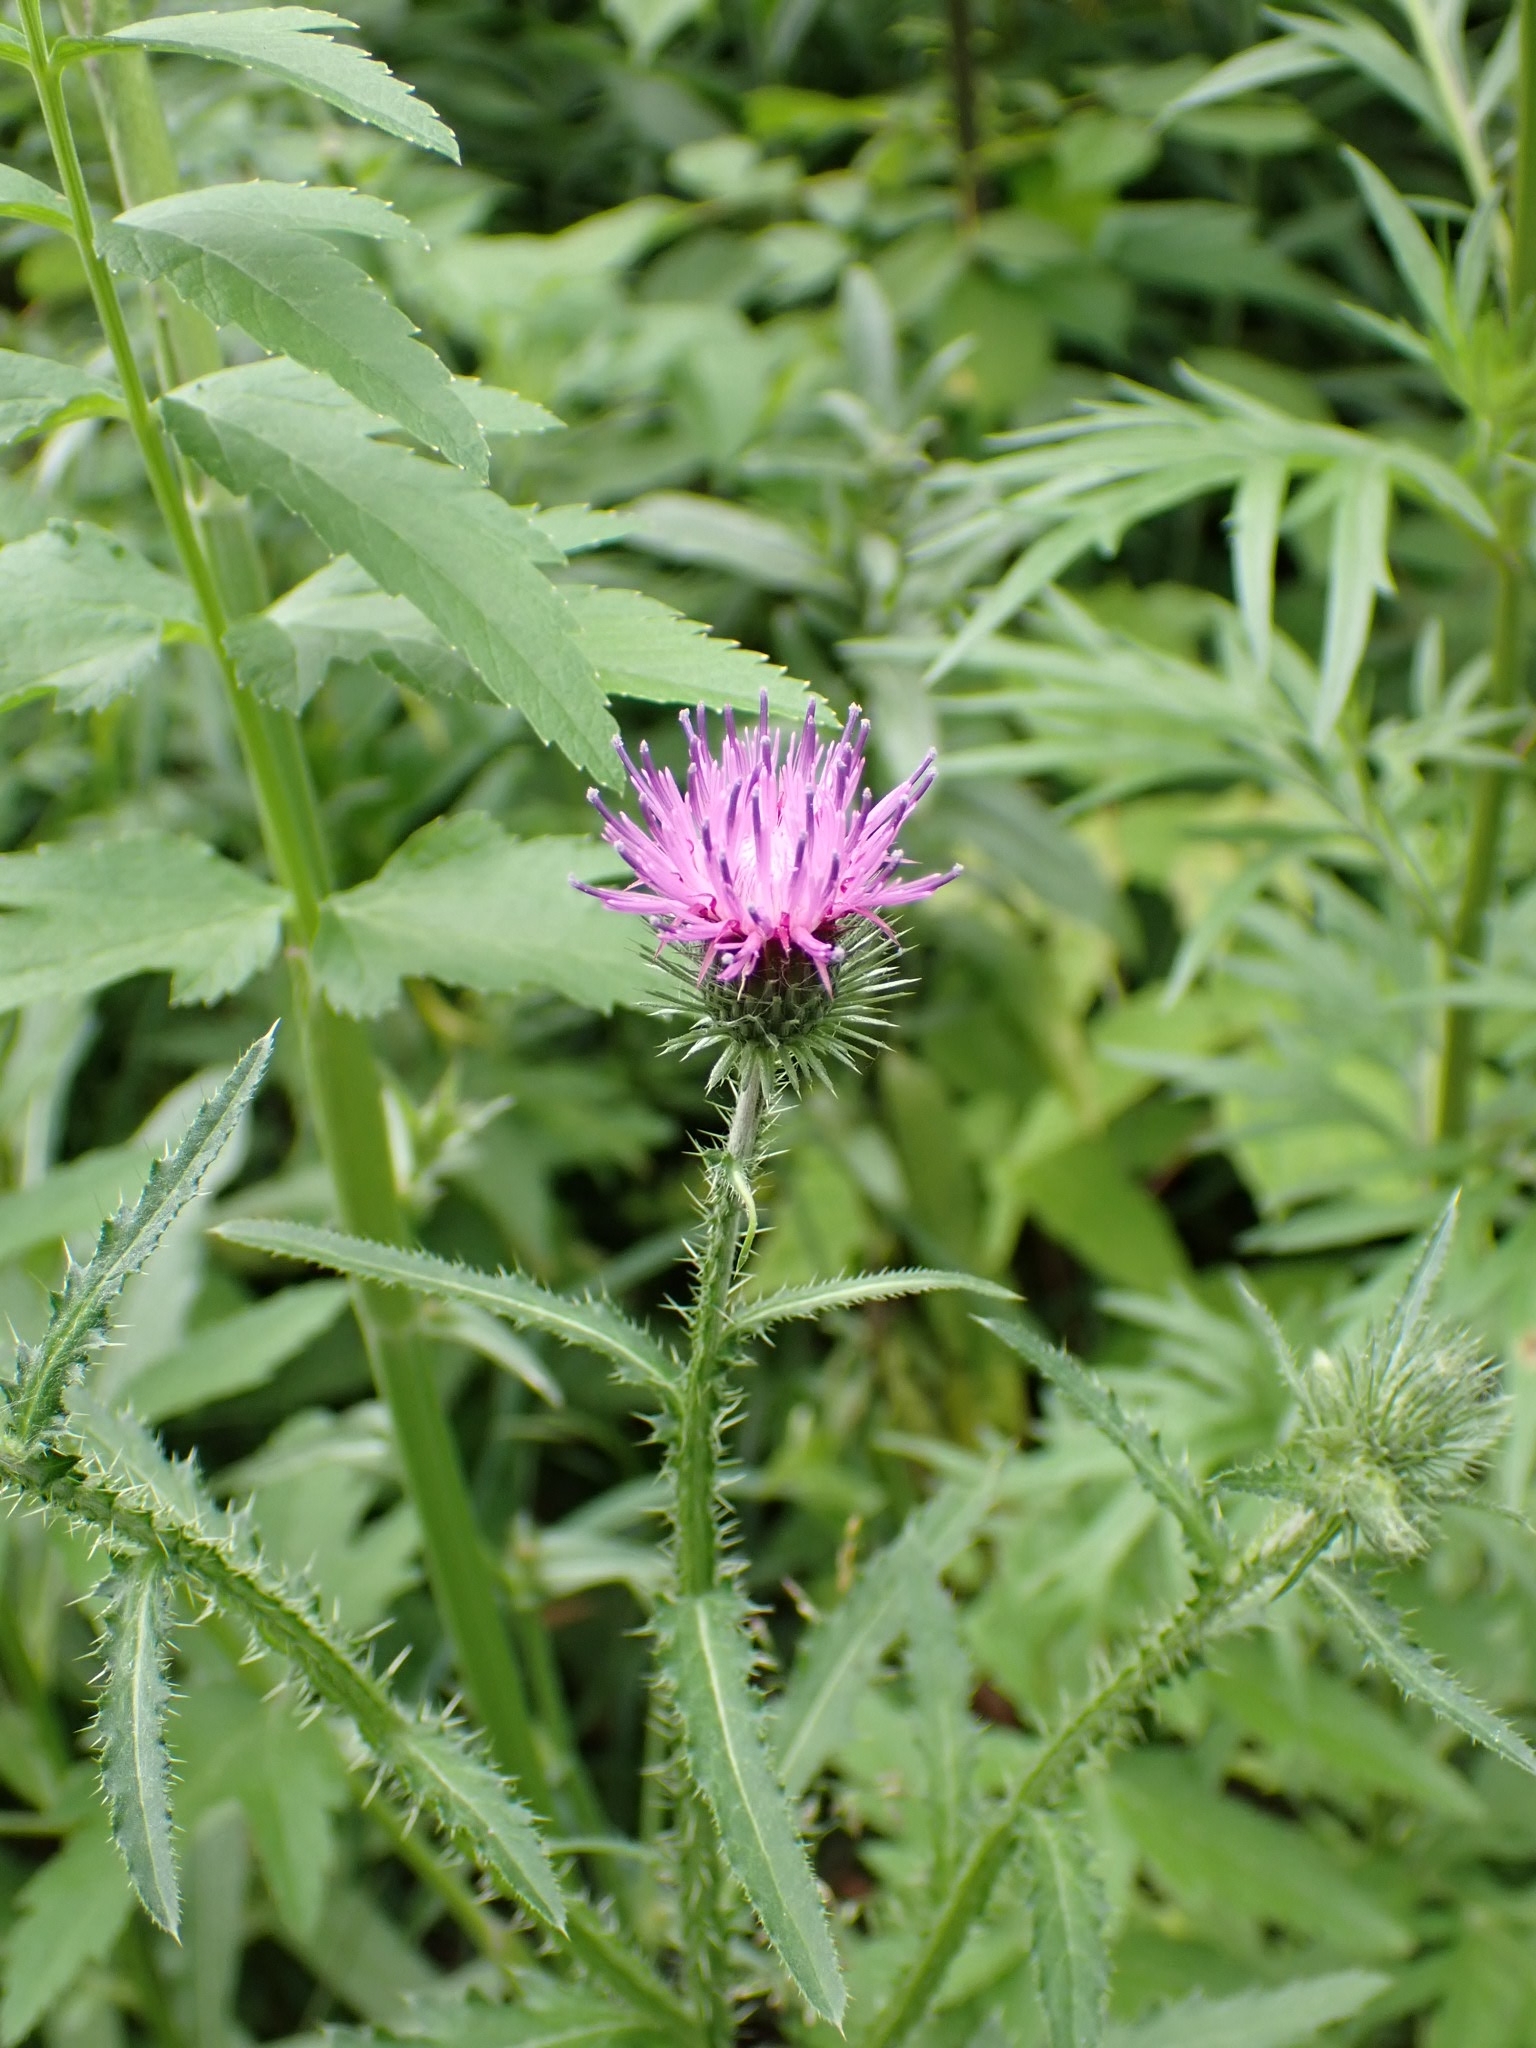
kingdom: Plantae
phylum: Tracheophyta
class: Magnoliopsida
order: Asterales
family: Asteraceae
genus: Carduus
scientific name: Carduus crispus
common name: Welted thistle
